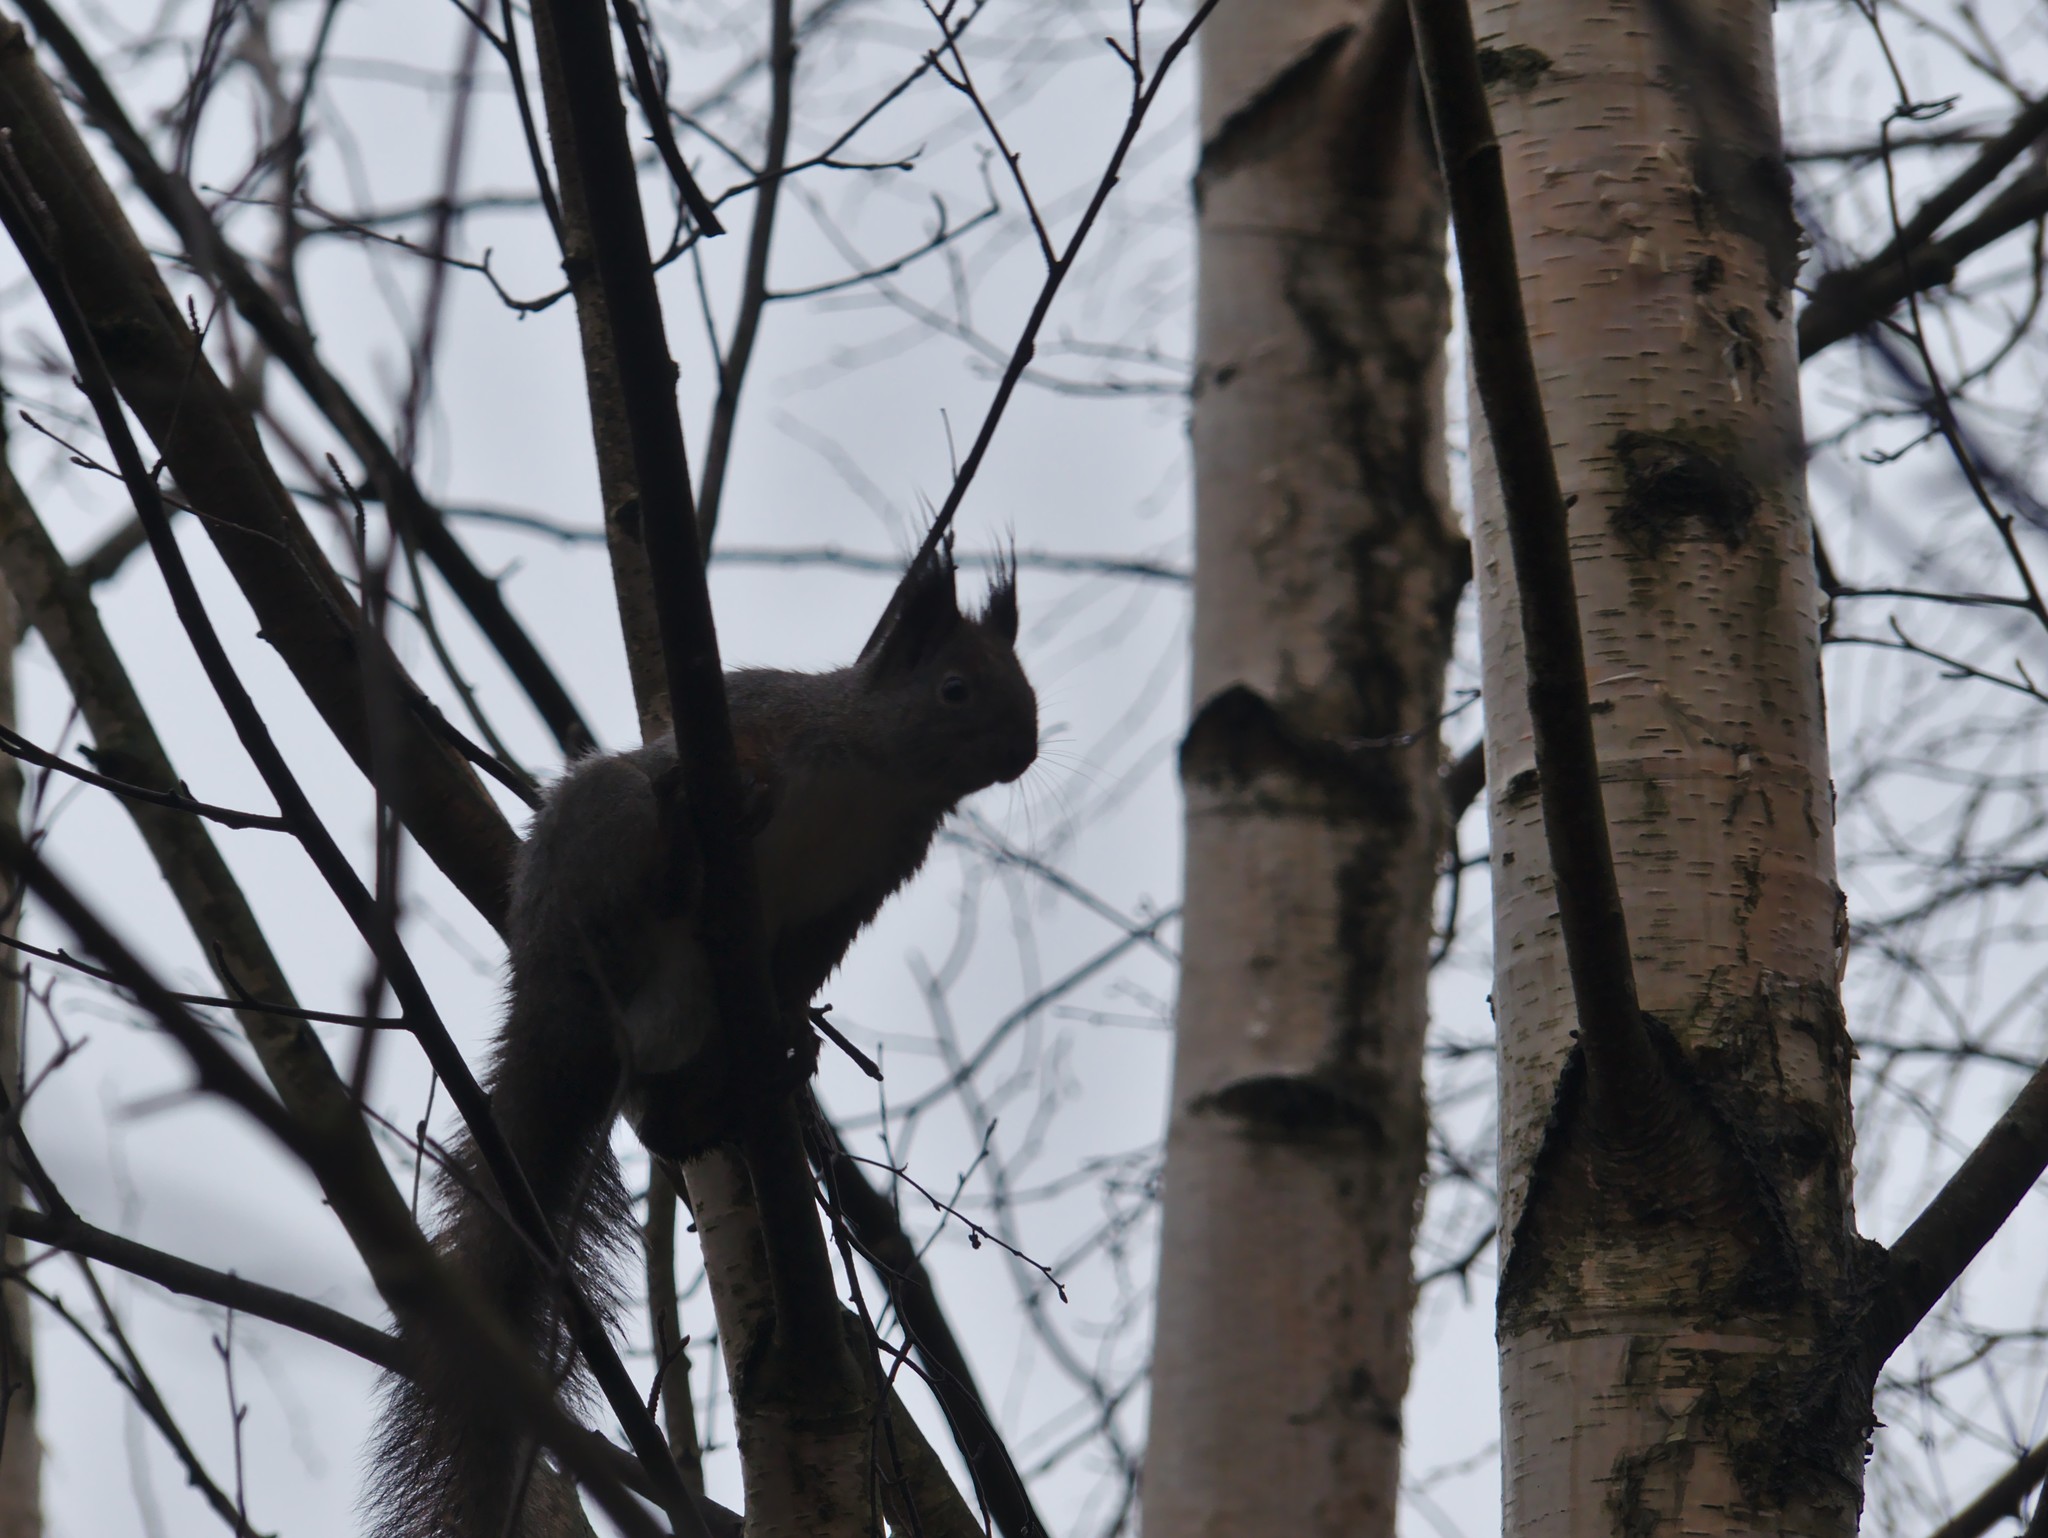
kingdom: Animalia
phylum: Chordata
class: Mammalia
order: Rodentia
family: Sciuridae
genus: Sciurus
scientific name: Sciurus vulgaris
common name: Eurasian red squirrel
